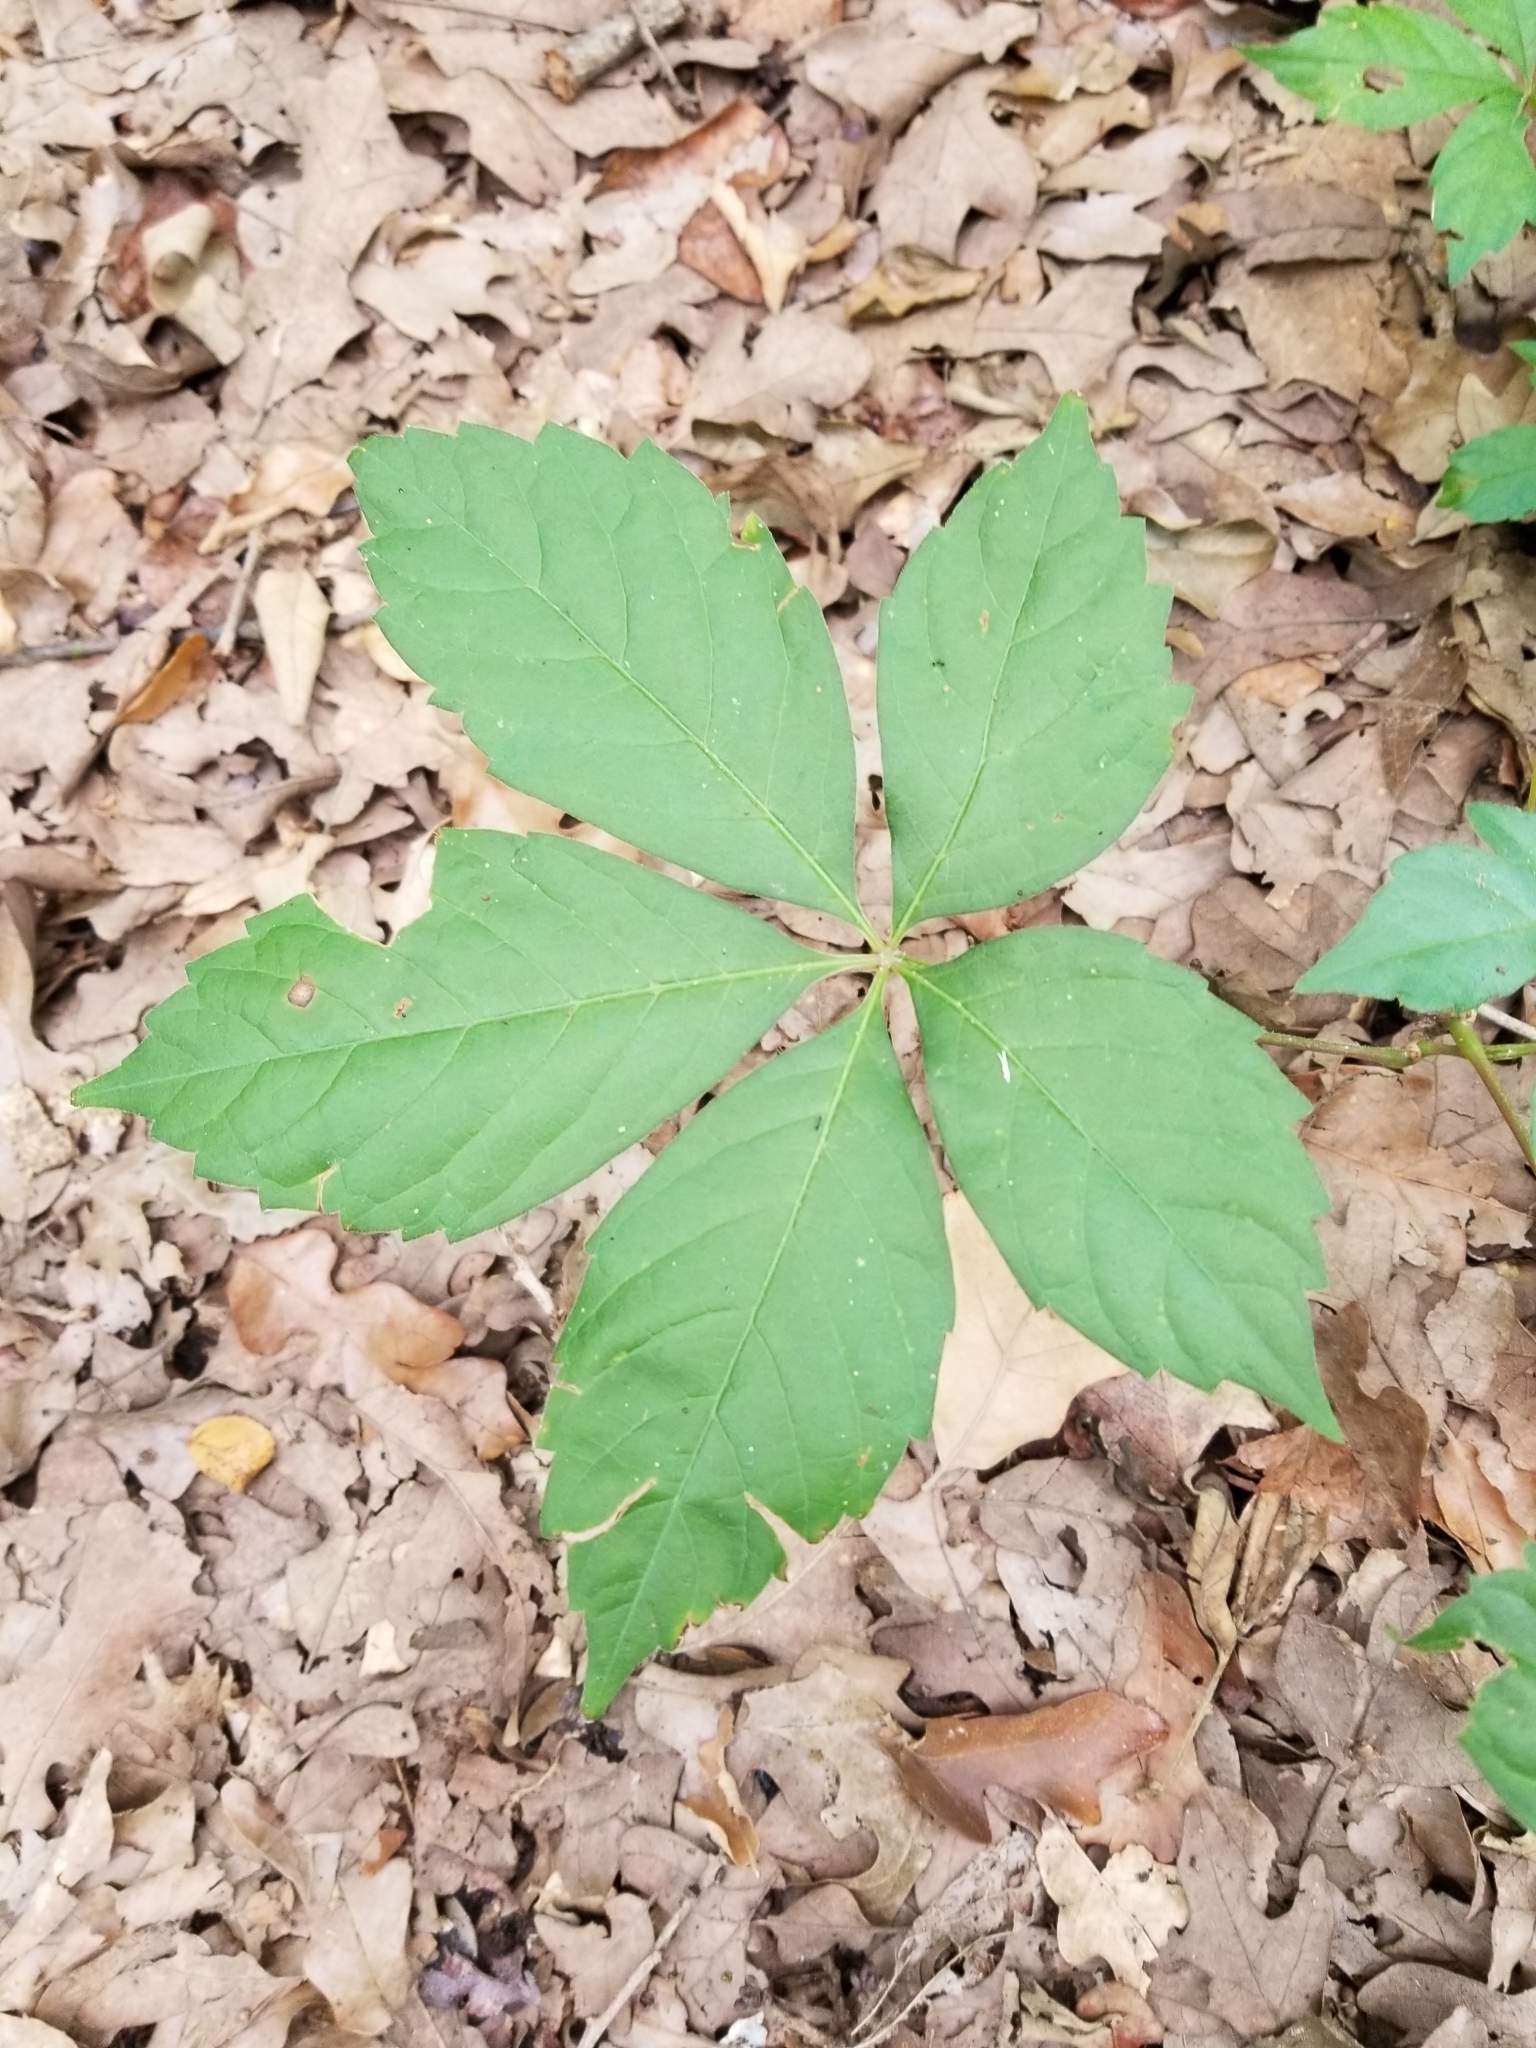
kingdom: Plantae
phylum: Tracheophyta
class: Magnoliopsida
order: Vitales
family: Vitaceae
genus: Parthenocissus
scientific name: Parthenocissus quinquefolia
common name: Virginia-creeper
